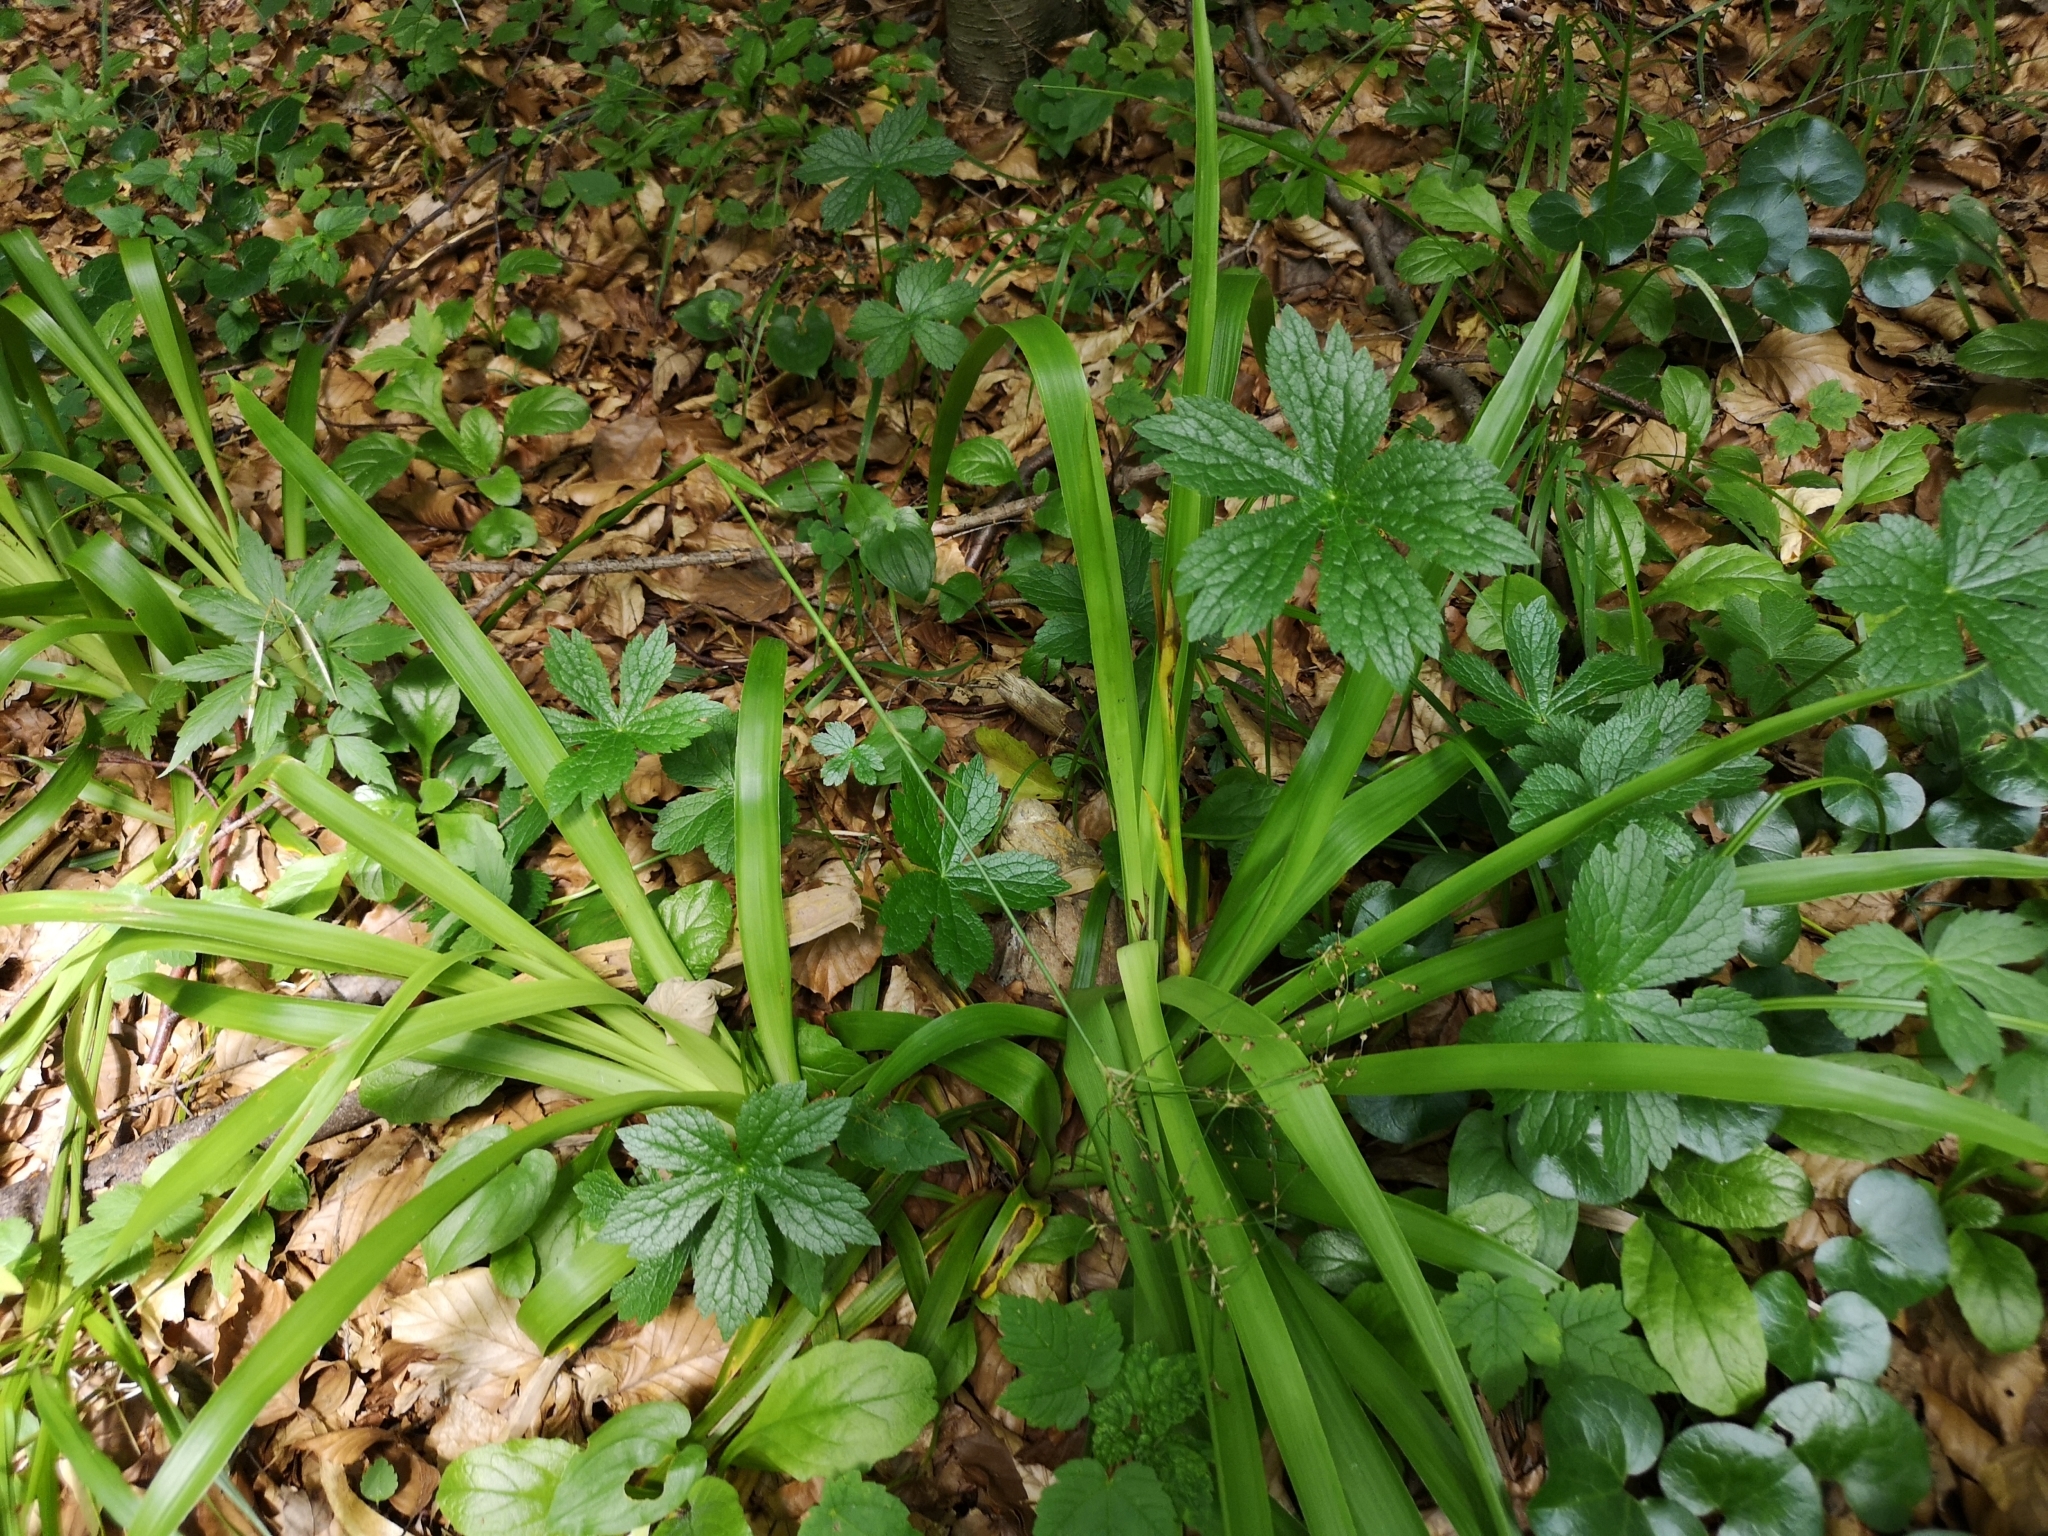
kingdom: Plantae
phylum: Tracheophyta
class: Liliopsida
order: Poales
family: Juncaceae
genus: Luzula
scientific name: Luzula sylvatica
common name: Great wood-rush
